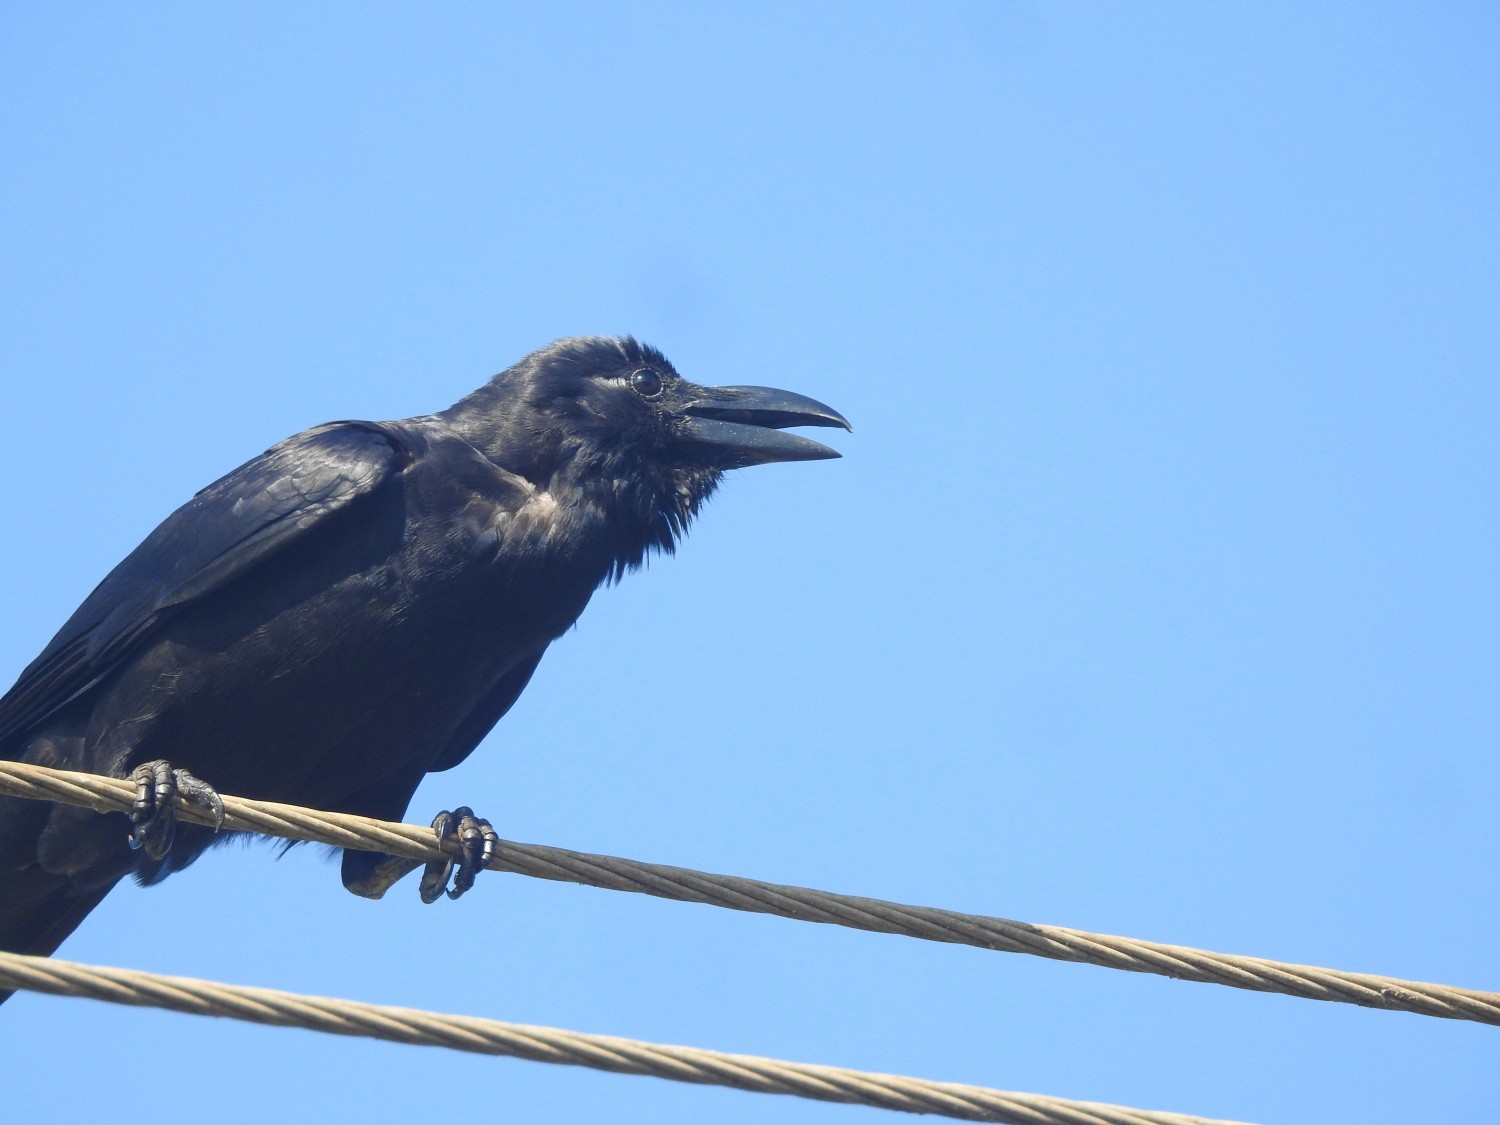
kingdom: Animalia
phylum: Chordata
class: Aves
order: Passeriformes
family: Corvidae
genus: Corvus
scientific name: Corvus macrorhynchos
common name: Large-billed crow
